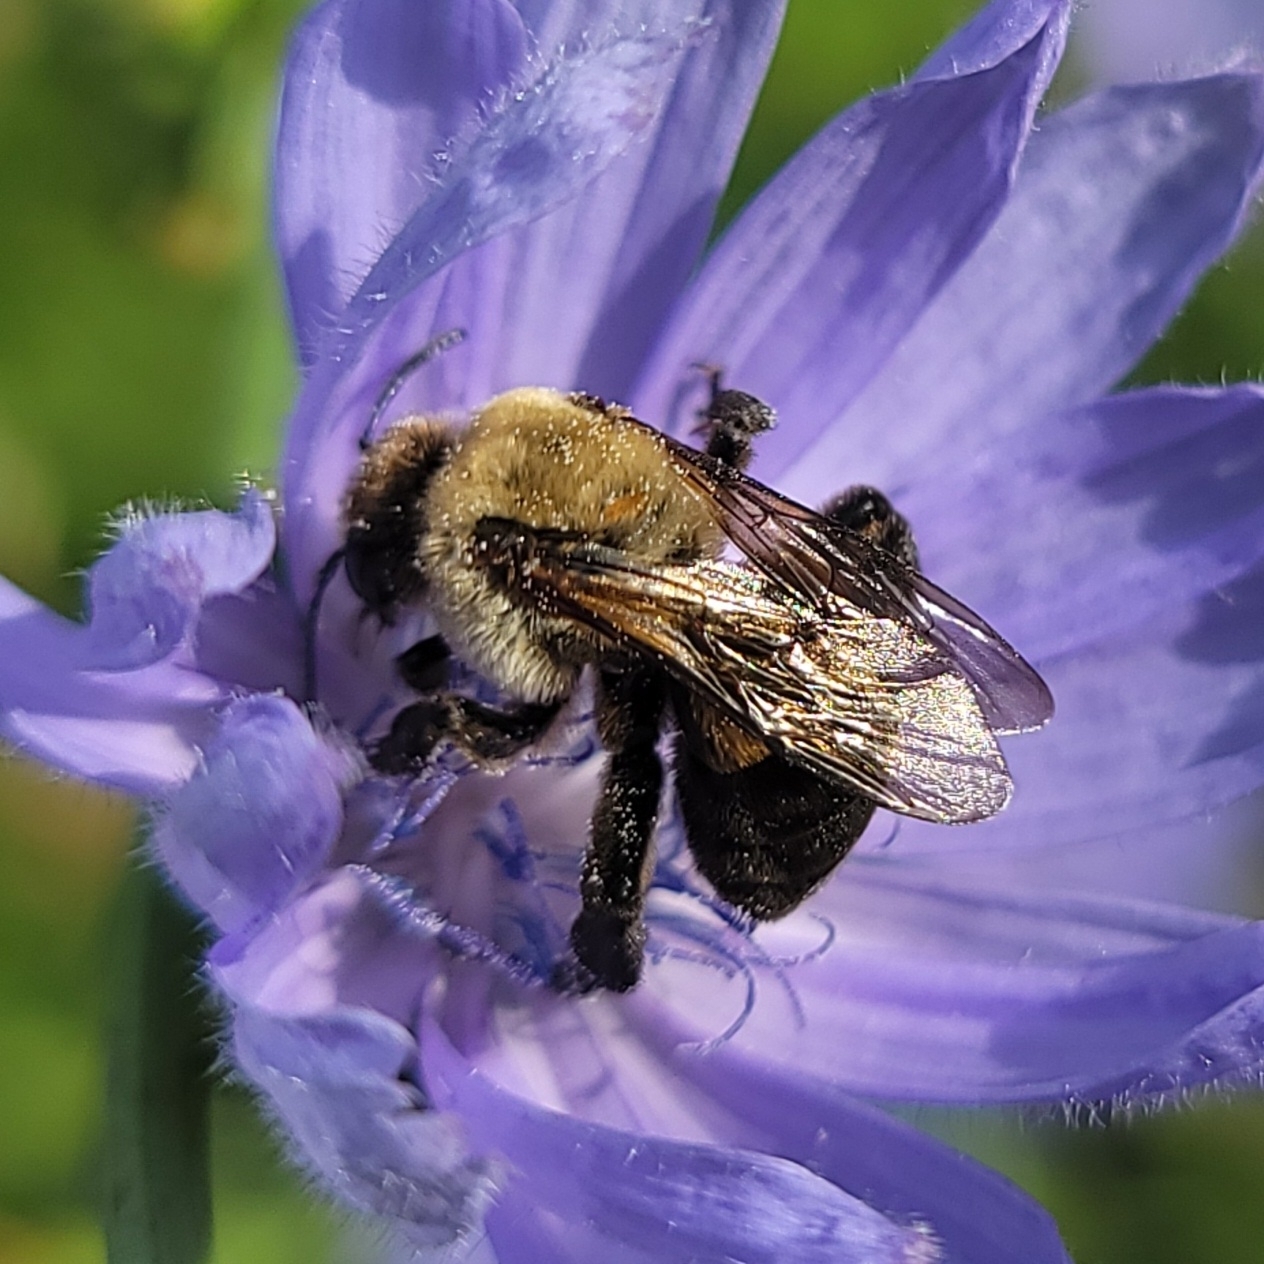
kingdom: Animalia
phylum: Arthropoda
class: Insecta
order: Hymenoptera
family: Apidae
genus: Ptilothrix
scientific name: Ptilothrix bombiformis
